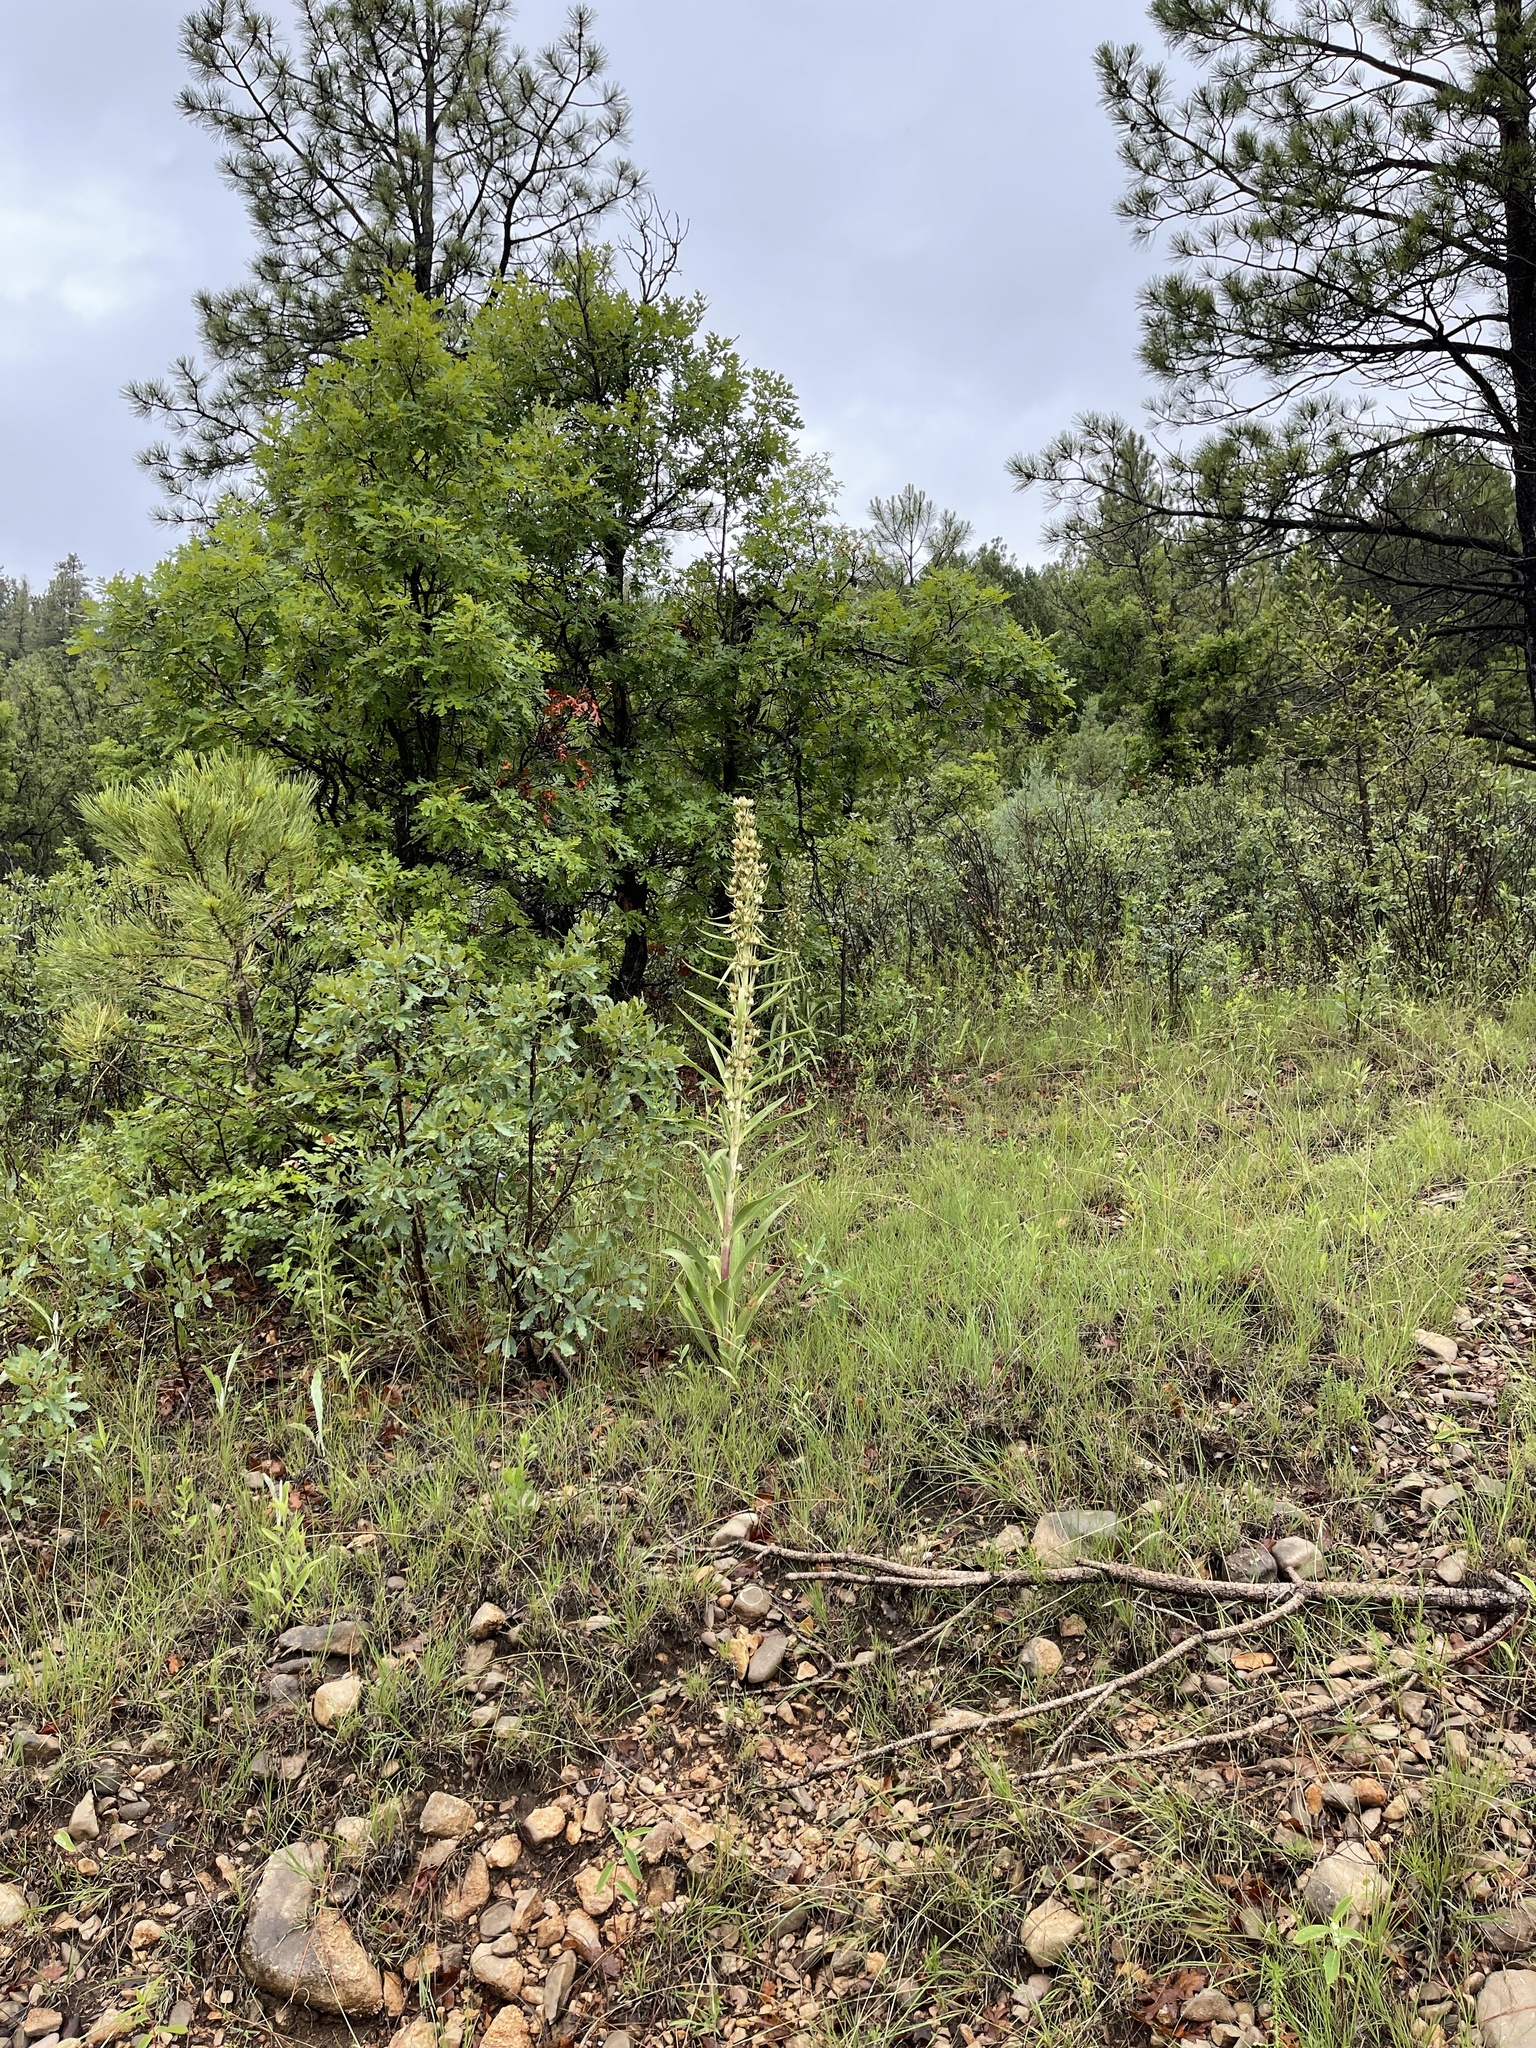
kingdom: Plantae
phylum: Tracheophyta
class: Magnoliopsida
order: Gentianales
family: Gentianaceae
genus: Frasera
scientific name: Frasera speciosa
